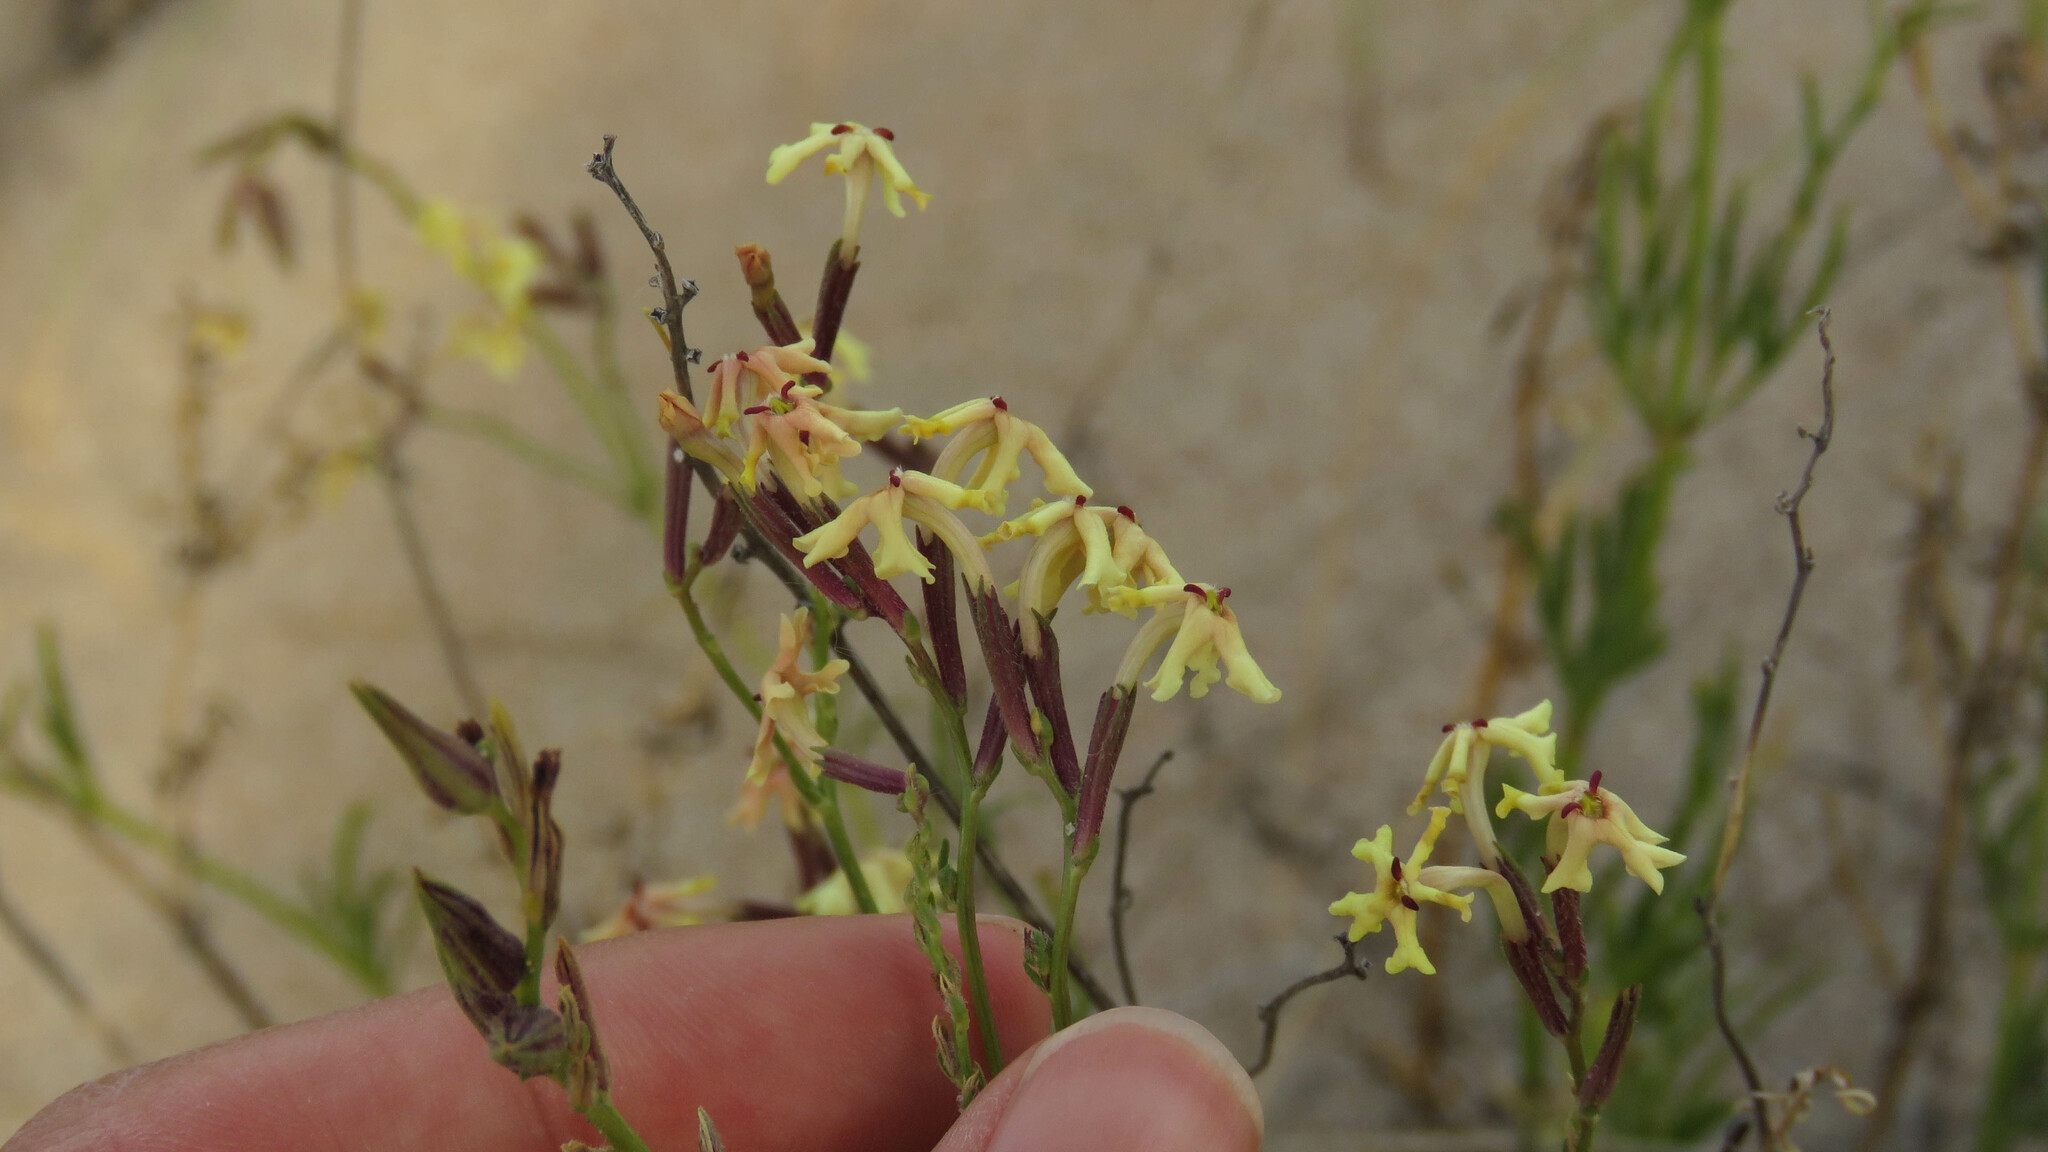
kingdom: Plantae
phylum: Tracheophyta
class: Magnoliopsida
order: Lamiales
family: Verbenaceae
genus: Verbena
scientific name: Verbena flava
